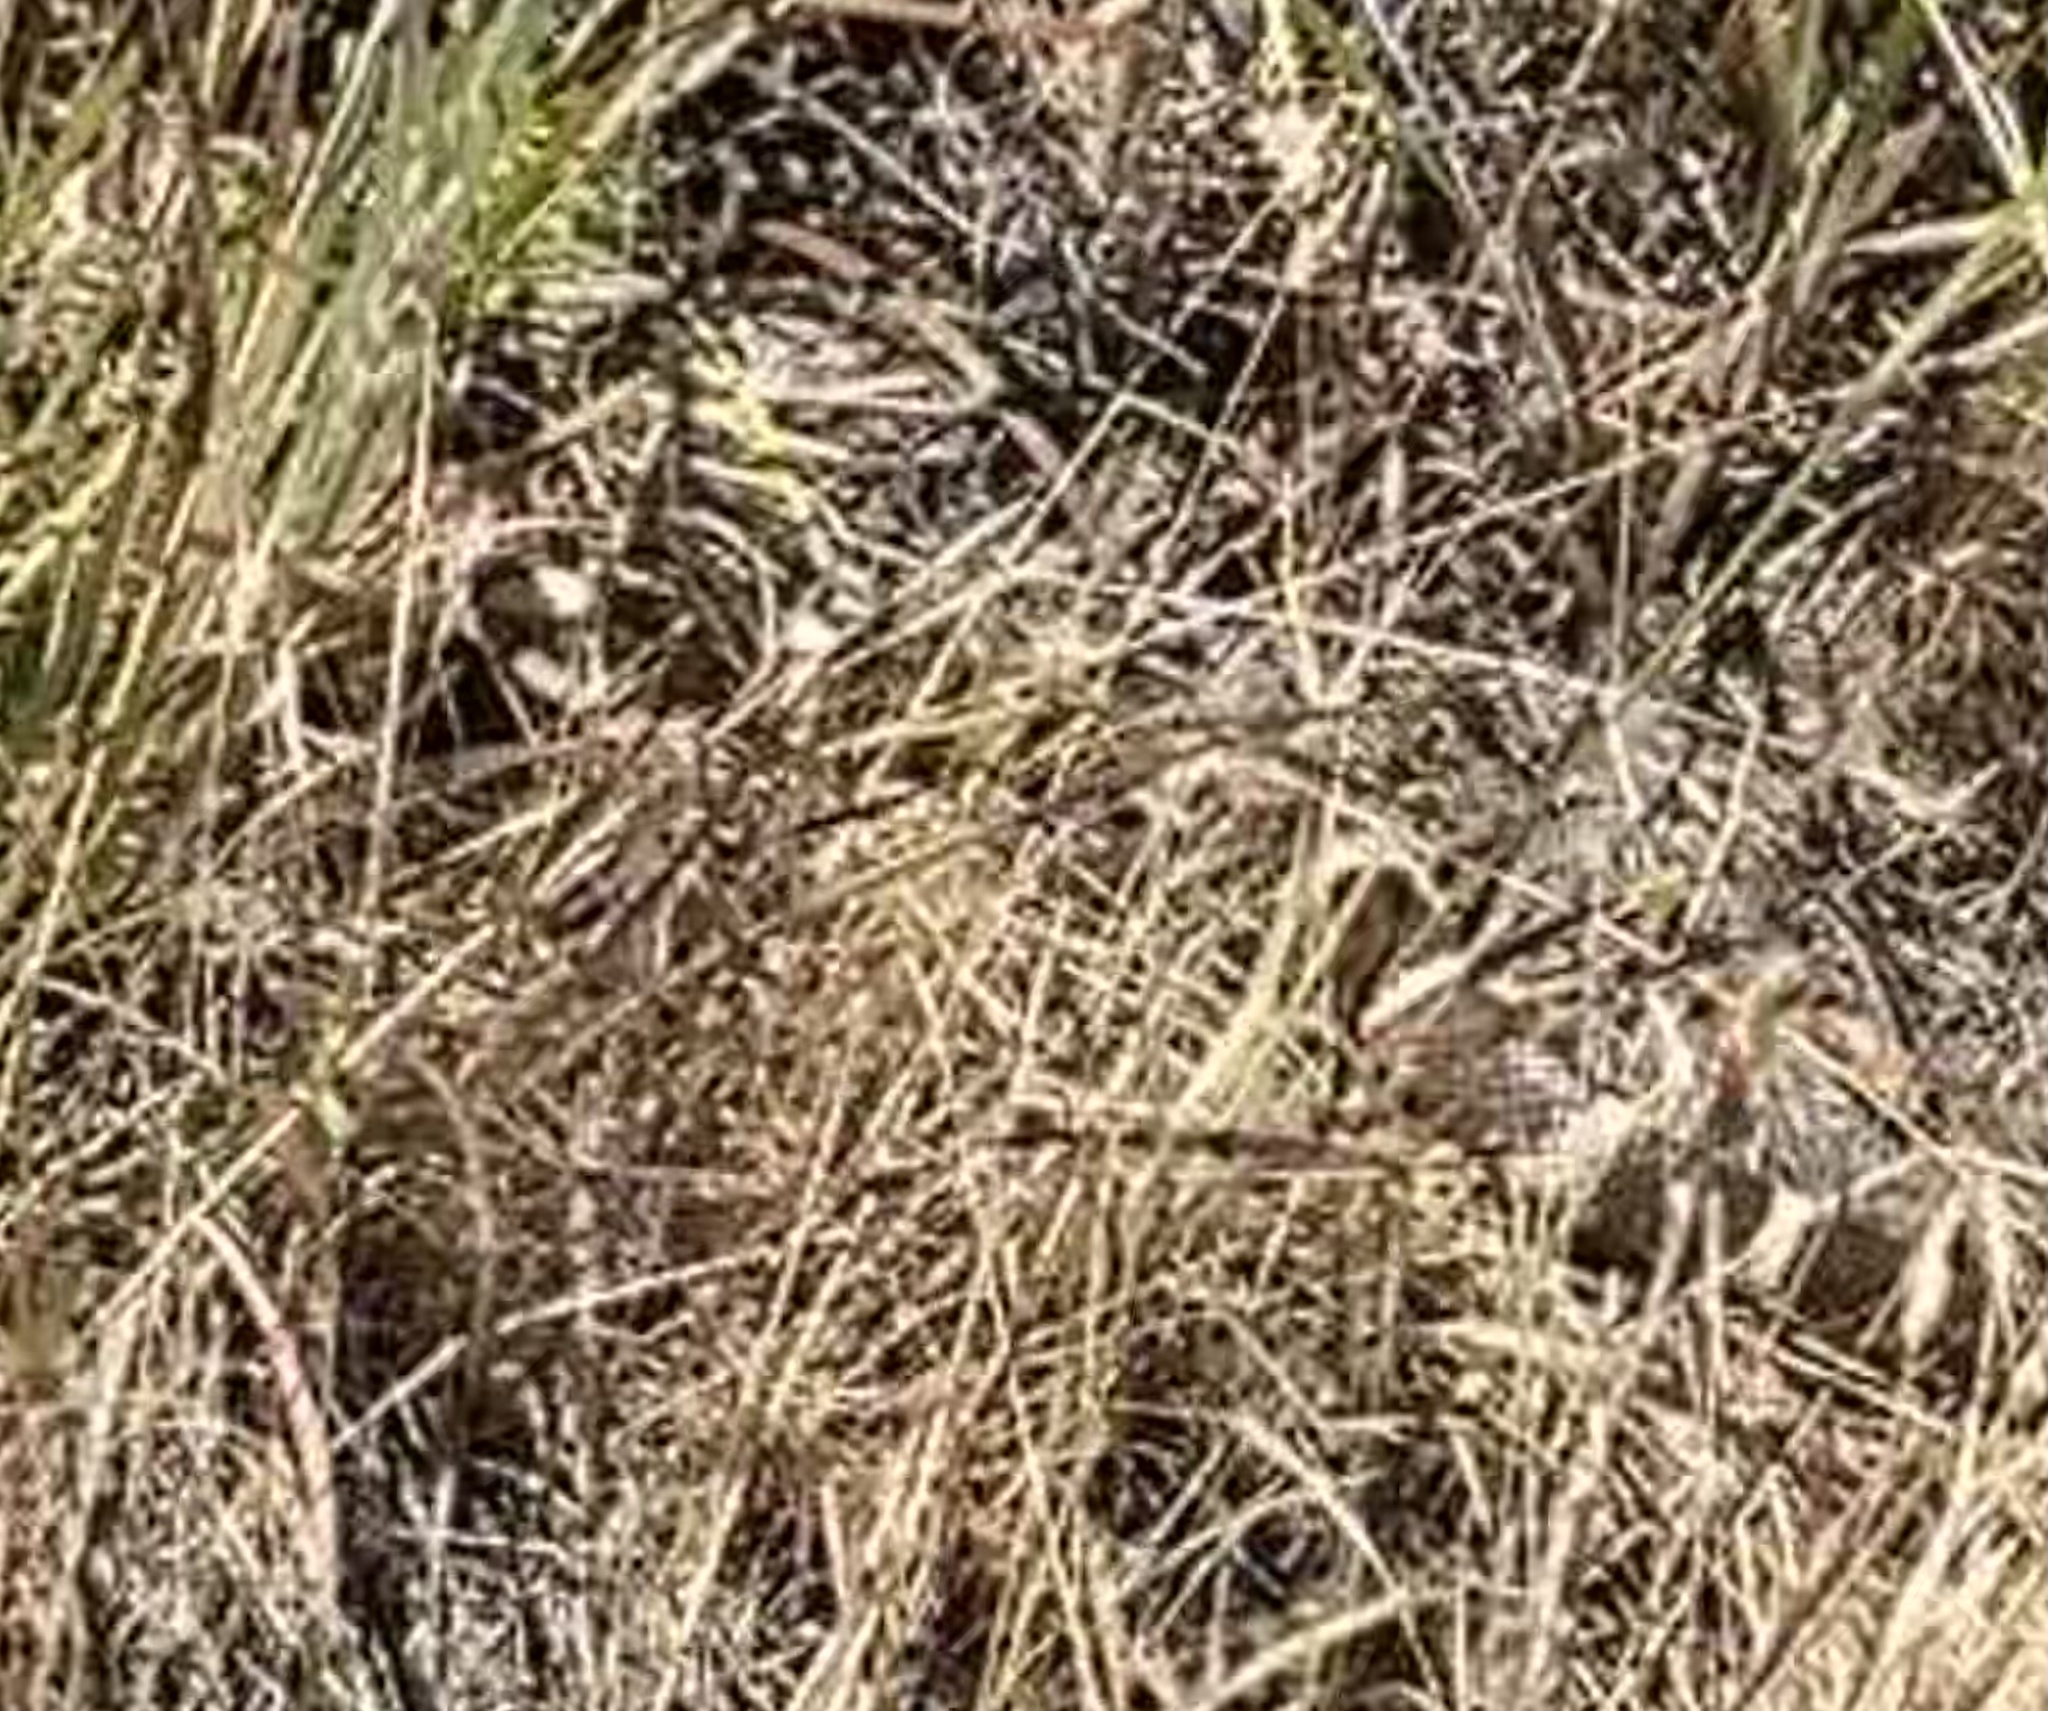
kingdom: Animalia
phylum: Chordata
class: Squamata
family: Colubridae
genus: Lampropeltis
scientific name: Lampropeltis californiae
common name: California kingsnake
